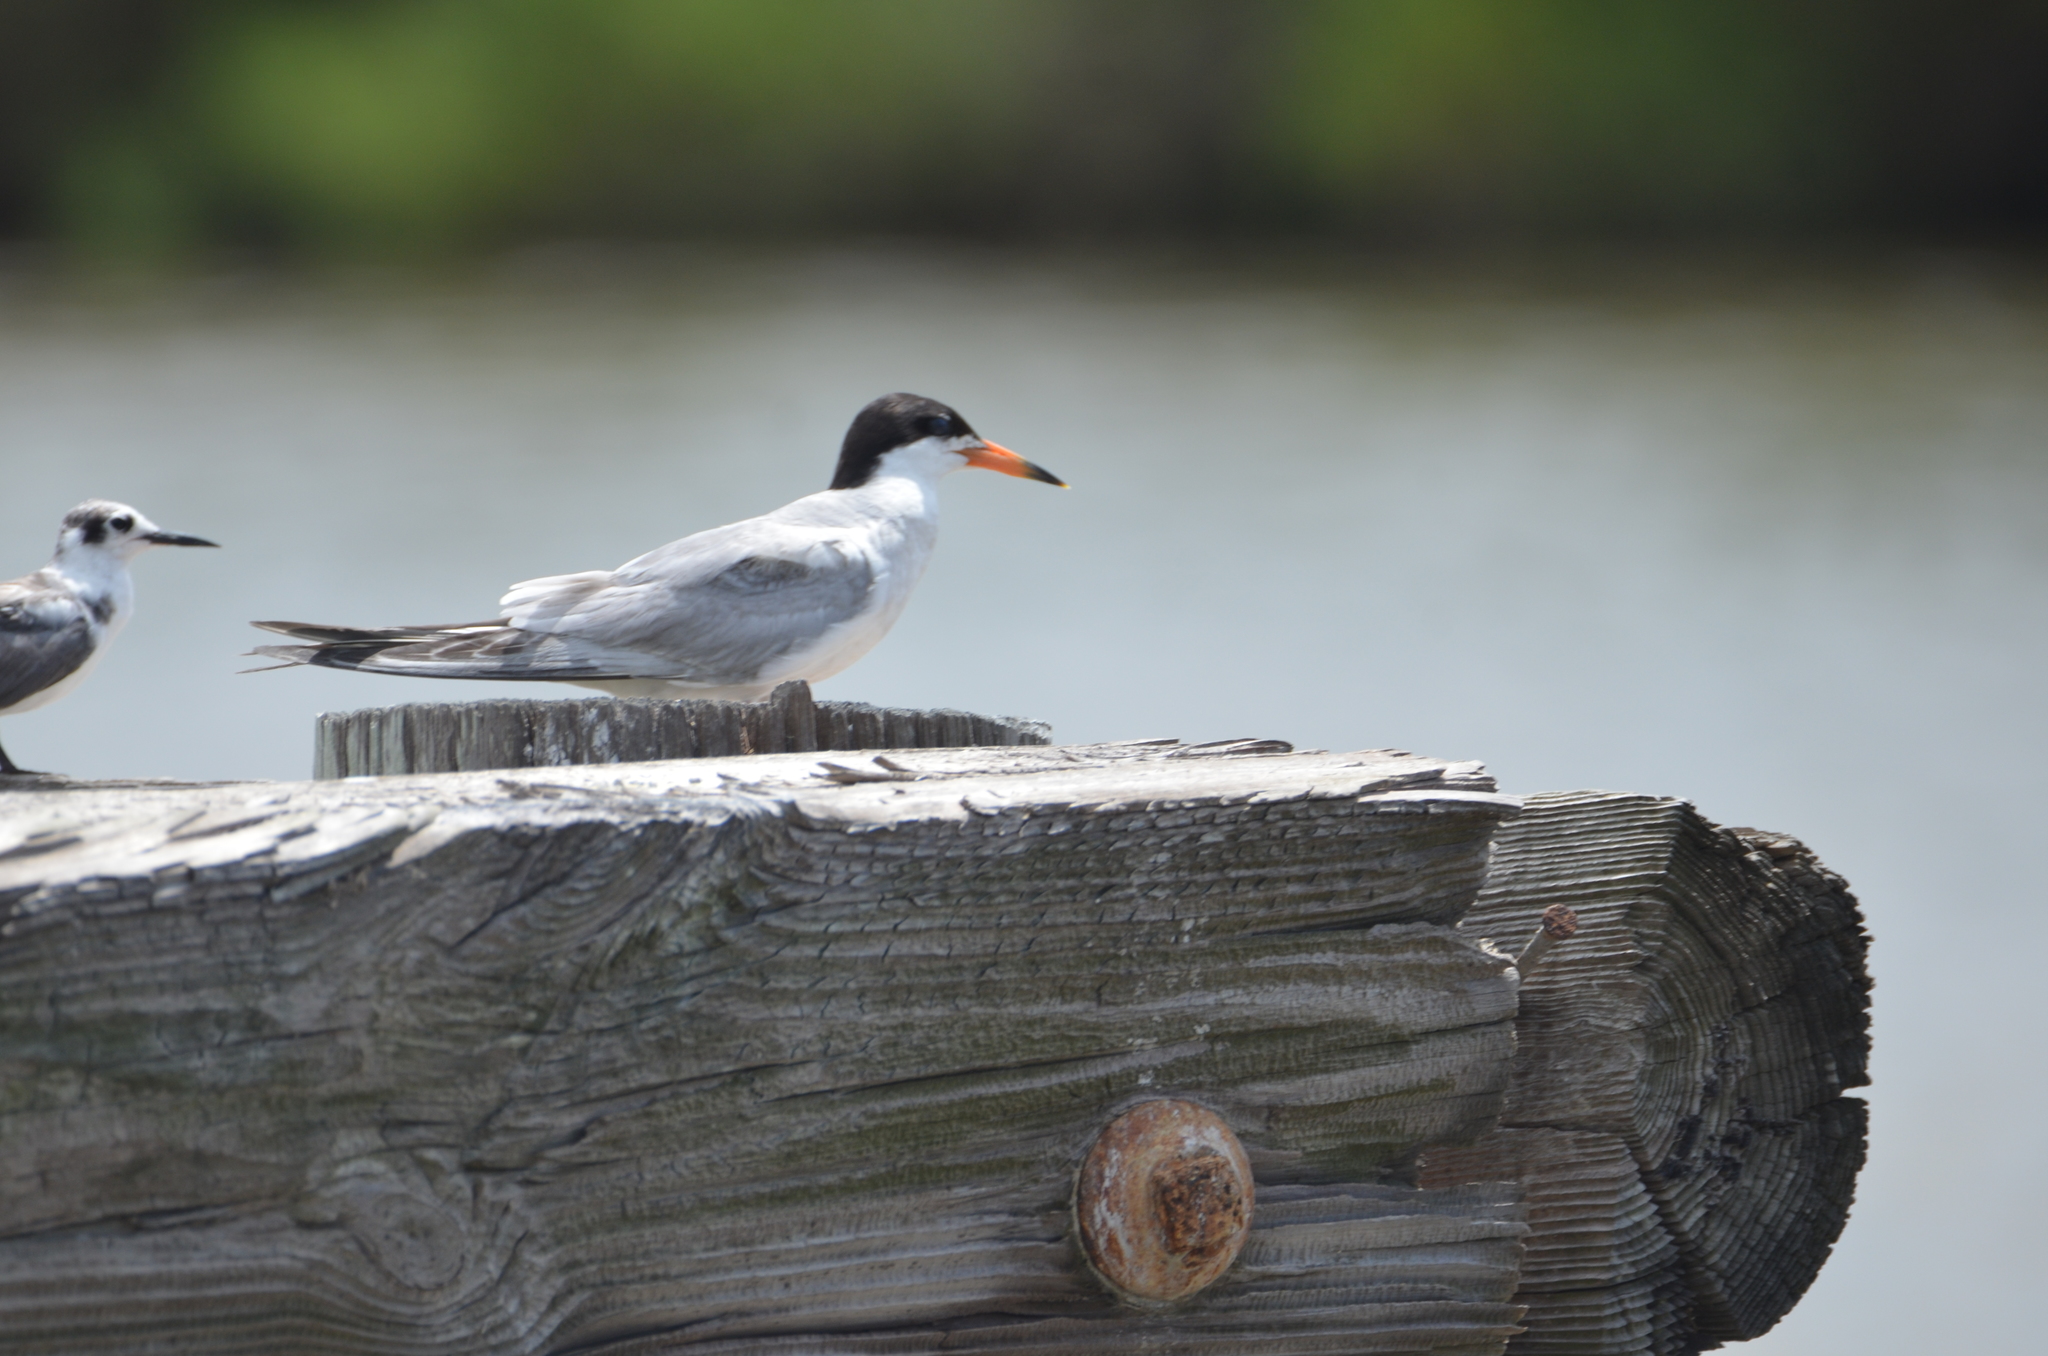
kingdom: Animalia
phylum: Chordata
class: Aves
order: Charadriiformes
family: Laridae
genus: Sterna
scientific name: Sterna forsteri
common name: Forster's tern
